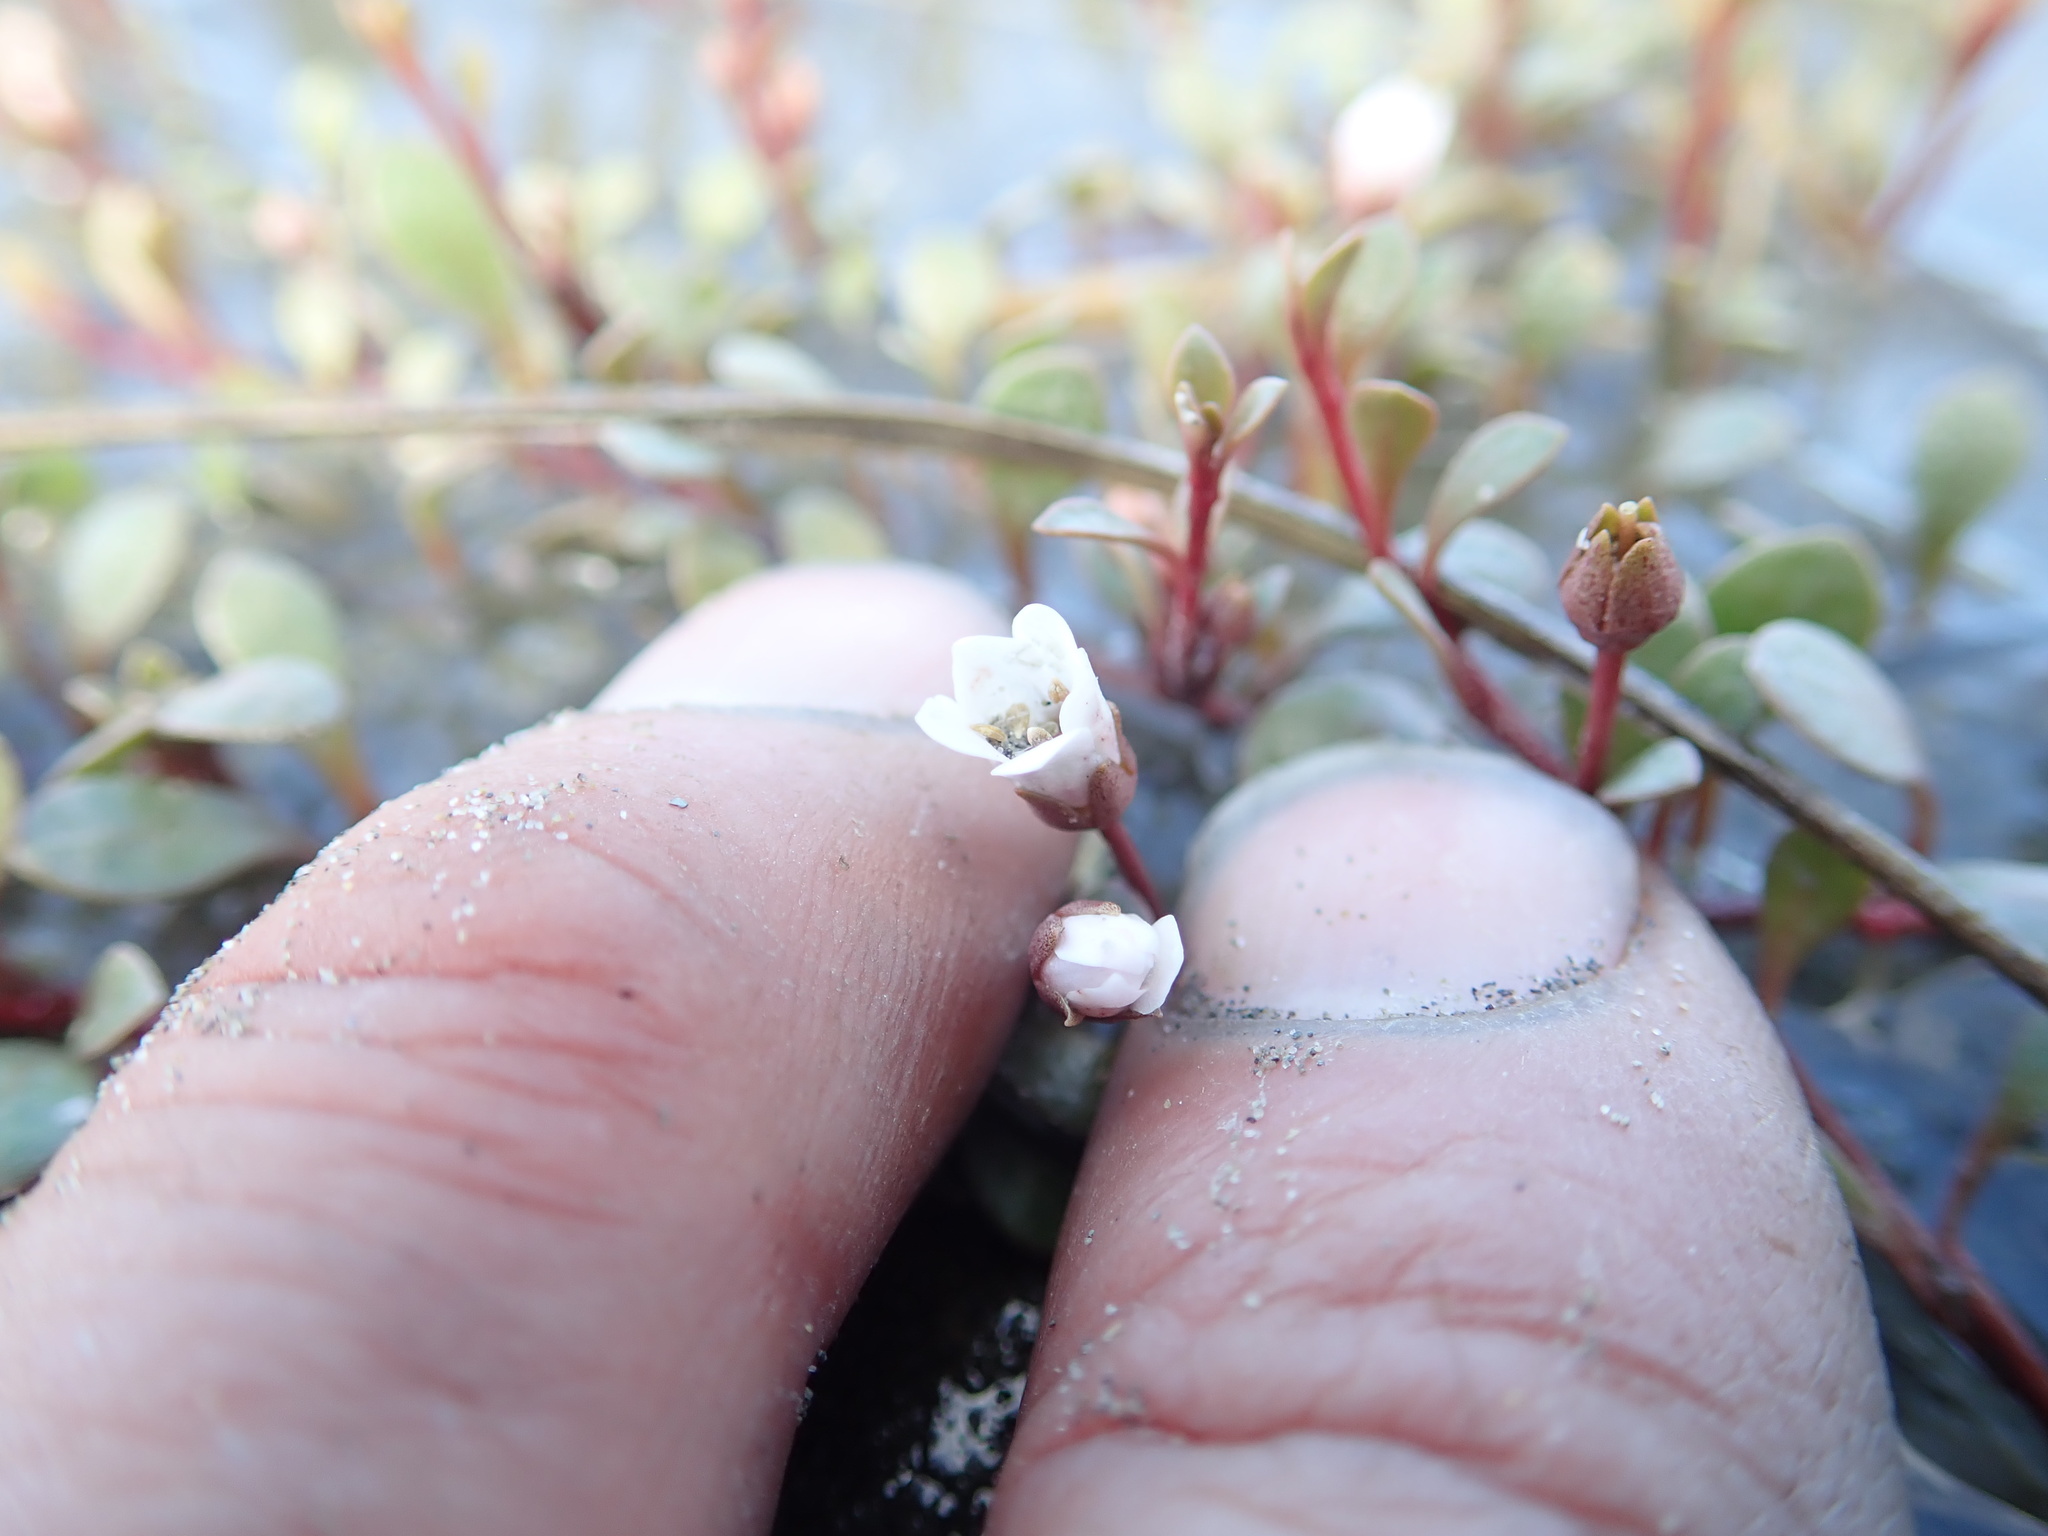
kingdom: Plantae
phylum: Tracheophyta
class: Magnoliopsida
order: Ericales
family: Primulaceae
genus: Samolus
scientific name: Samolus repens
